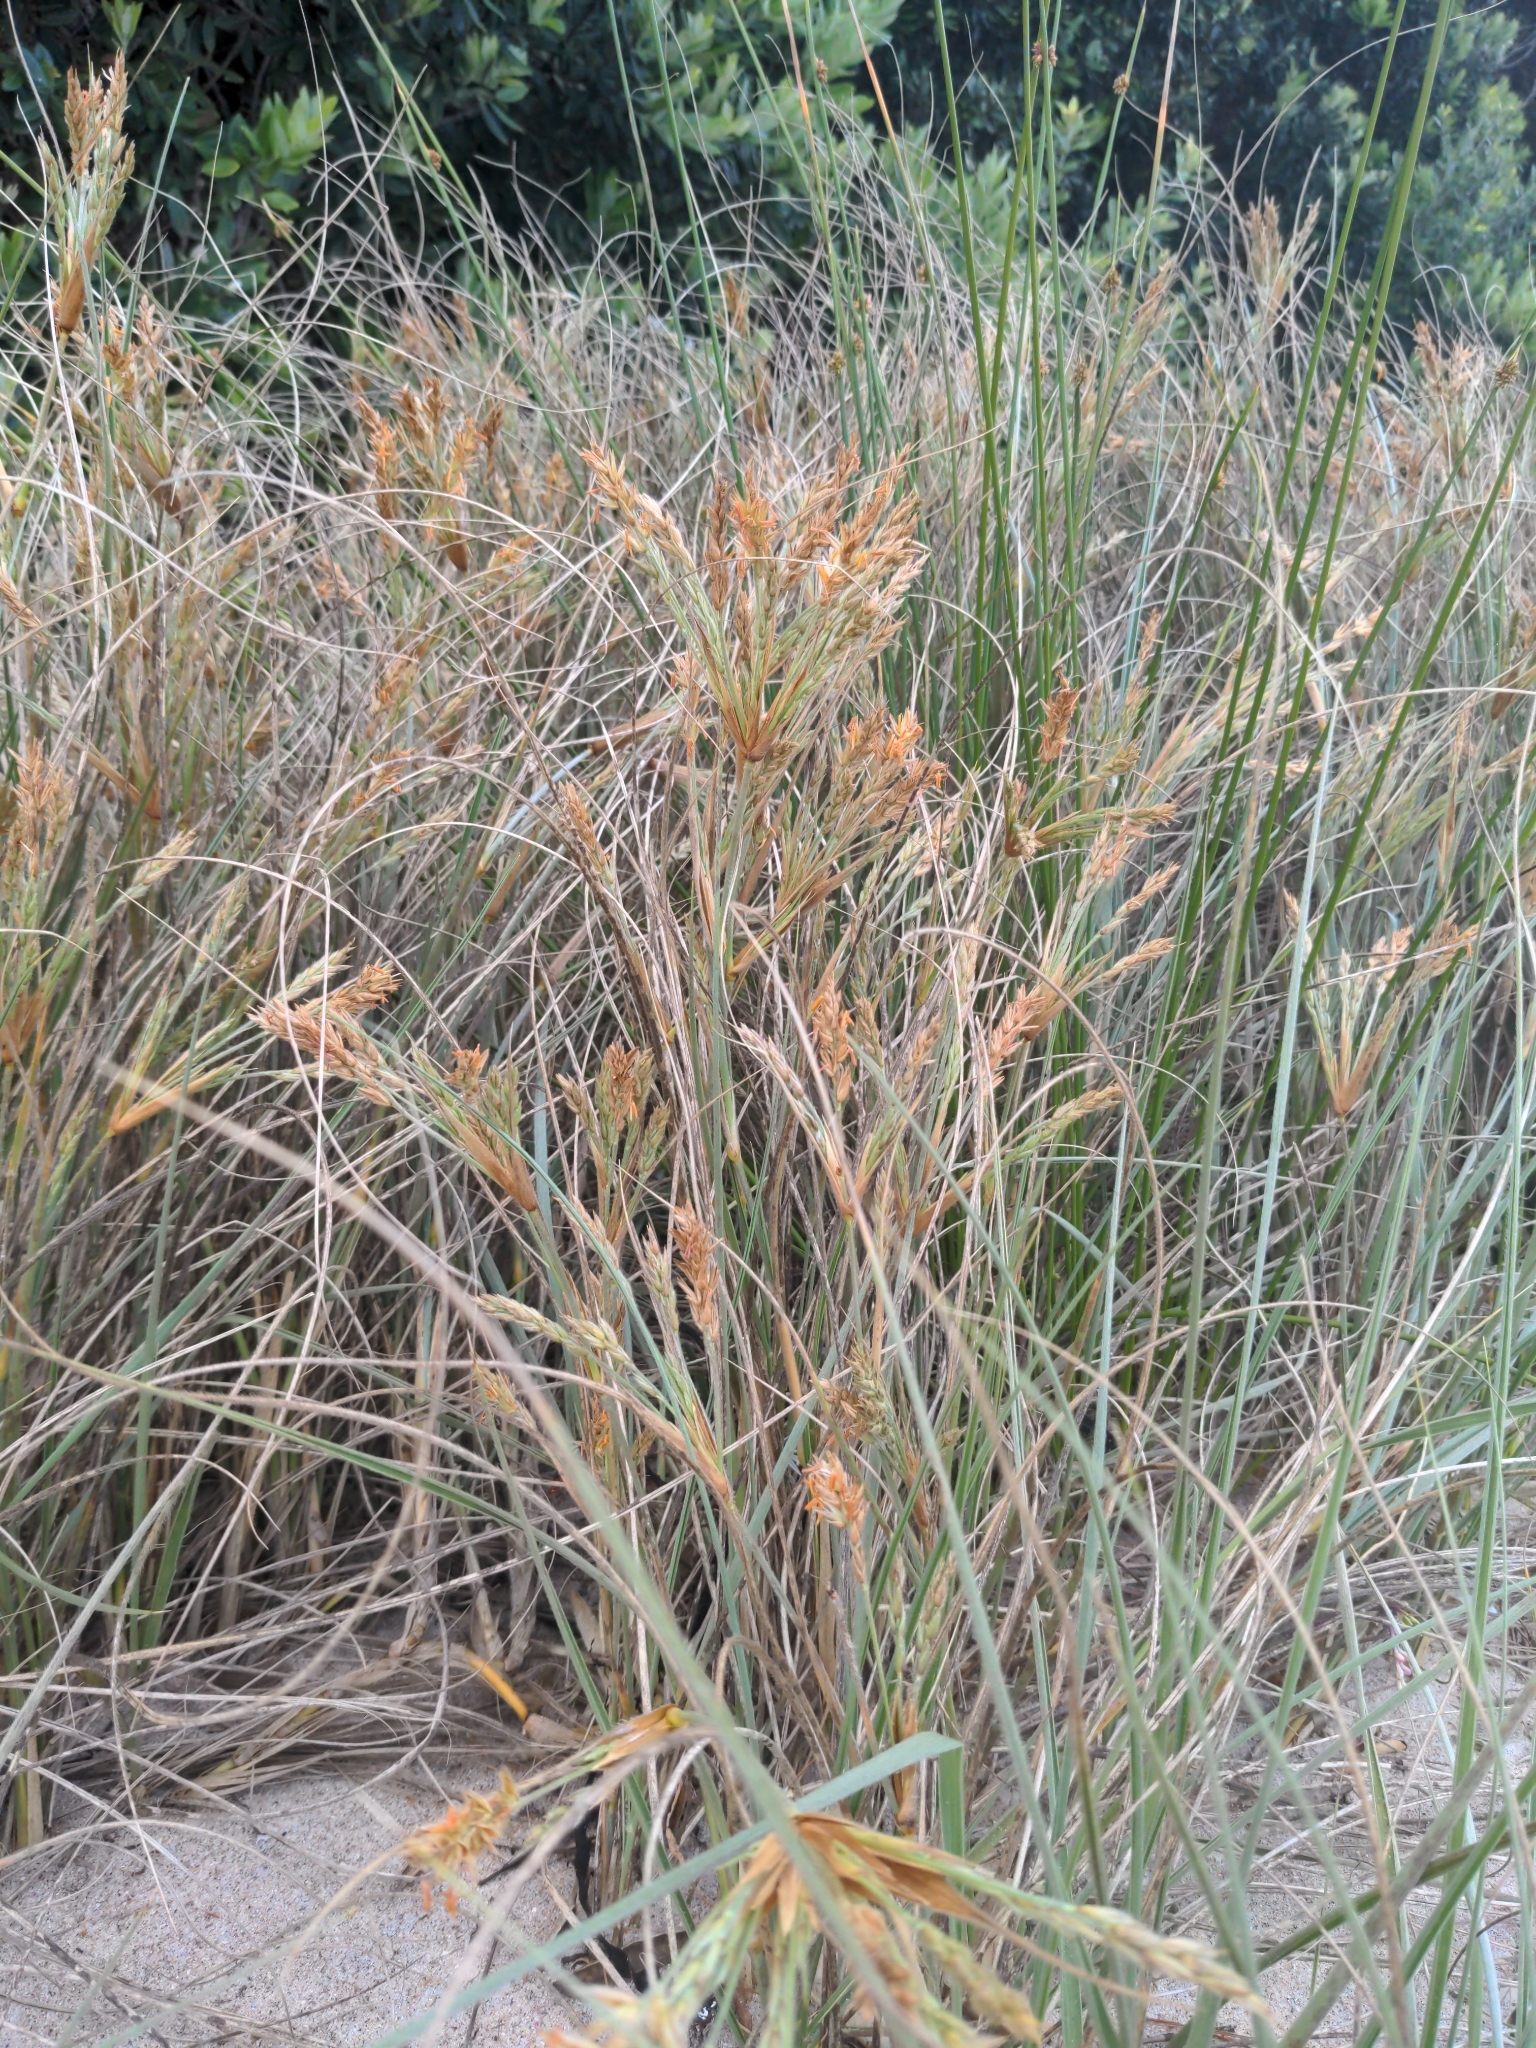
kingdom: Plantae
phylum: Tracheophyta
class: Liliopsida
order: Poales
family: Poaceae
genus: Spinifex
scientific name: Spinifex sericeus
